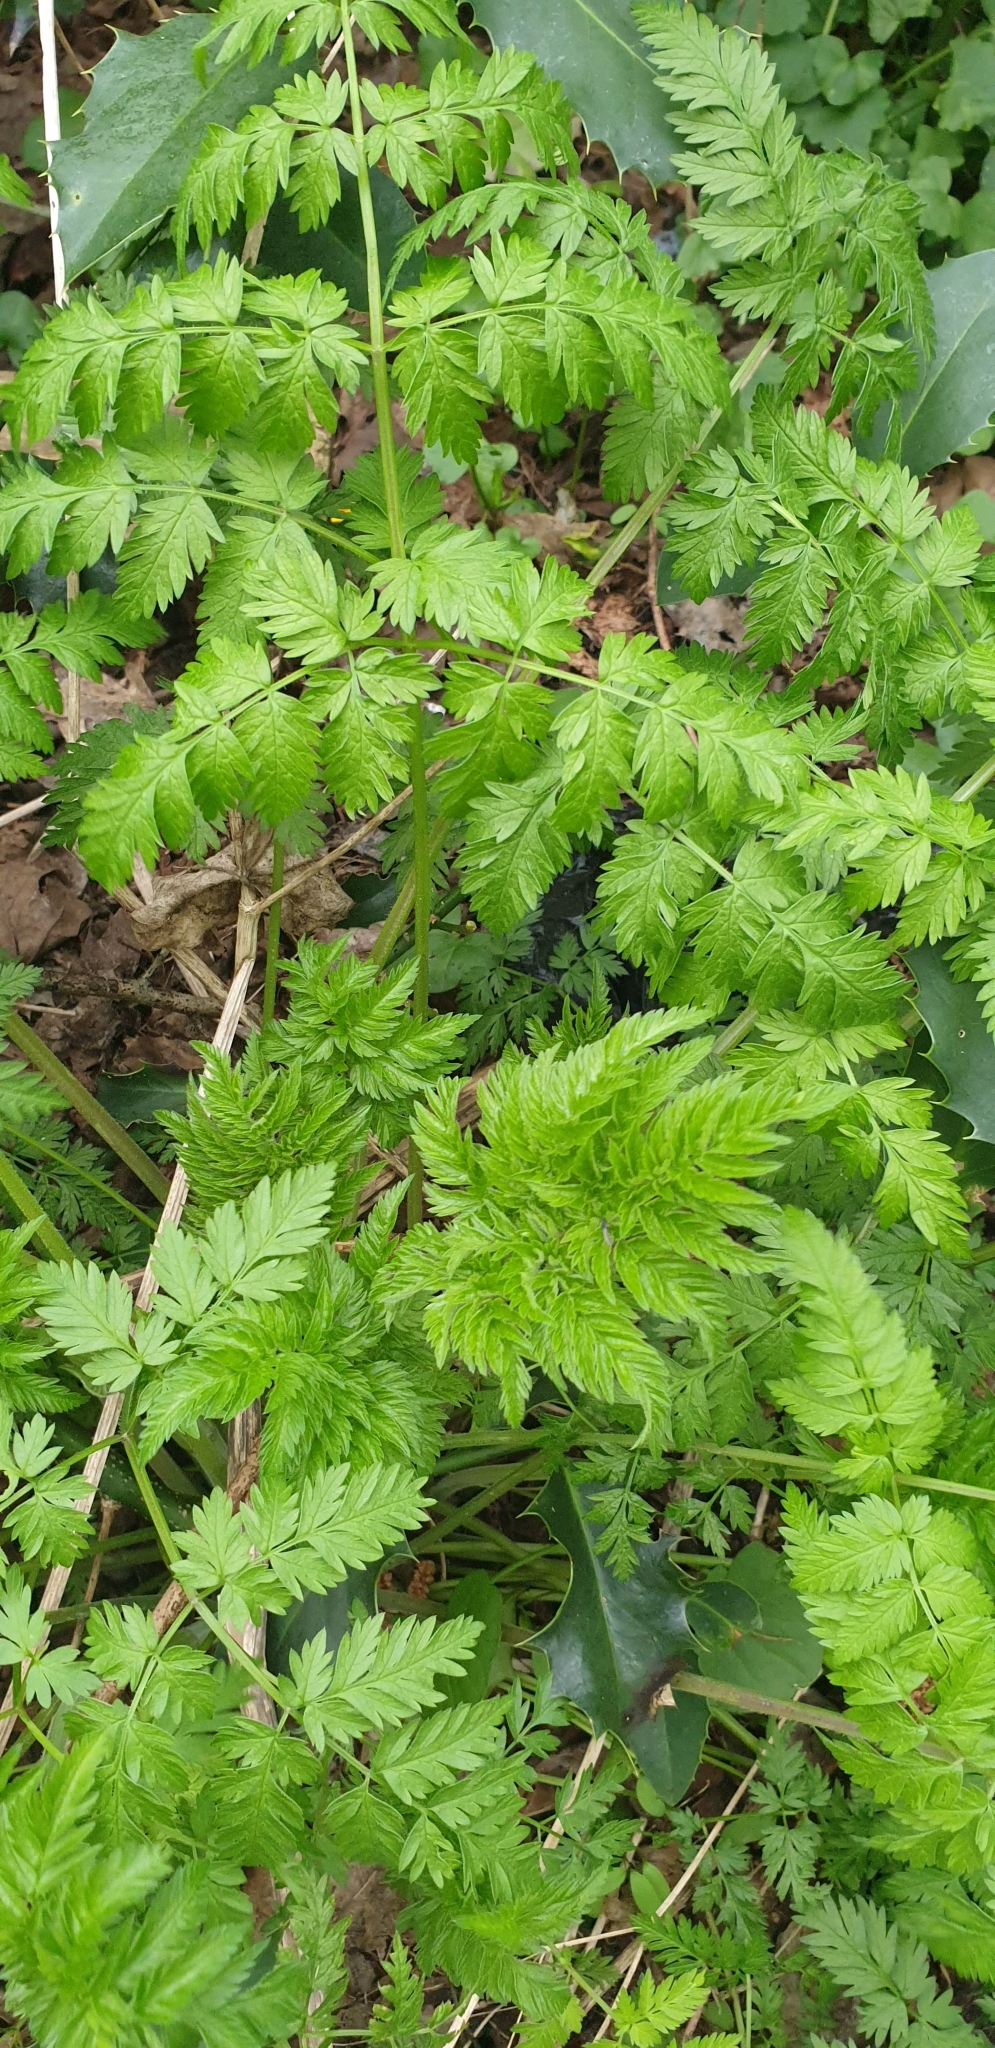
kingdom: Plantae
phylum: Tracheophyta
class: Magnoliopsida
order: Apiales
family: Apiaceae
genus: Anthriscus
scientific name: Anthriscus sylvestris
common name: Cow parsley
